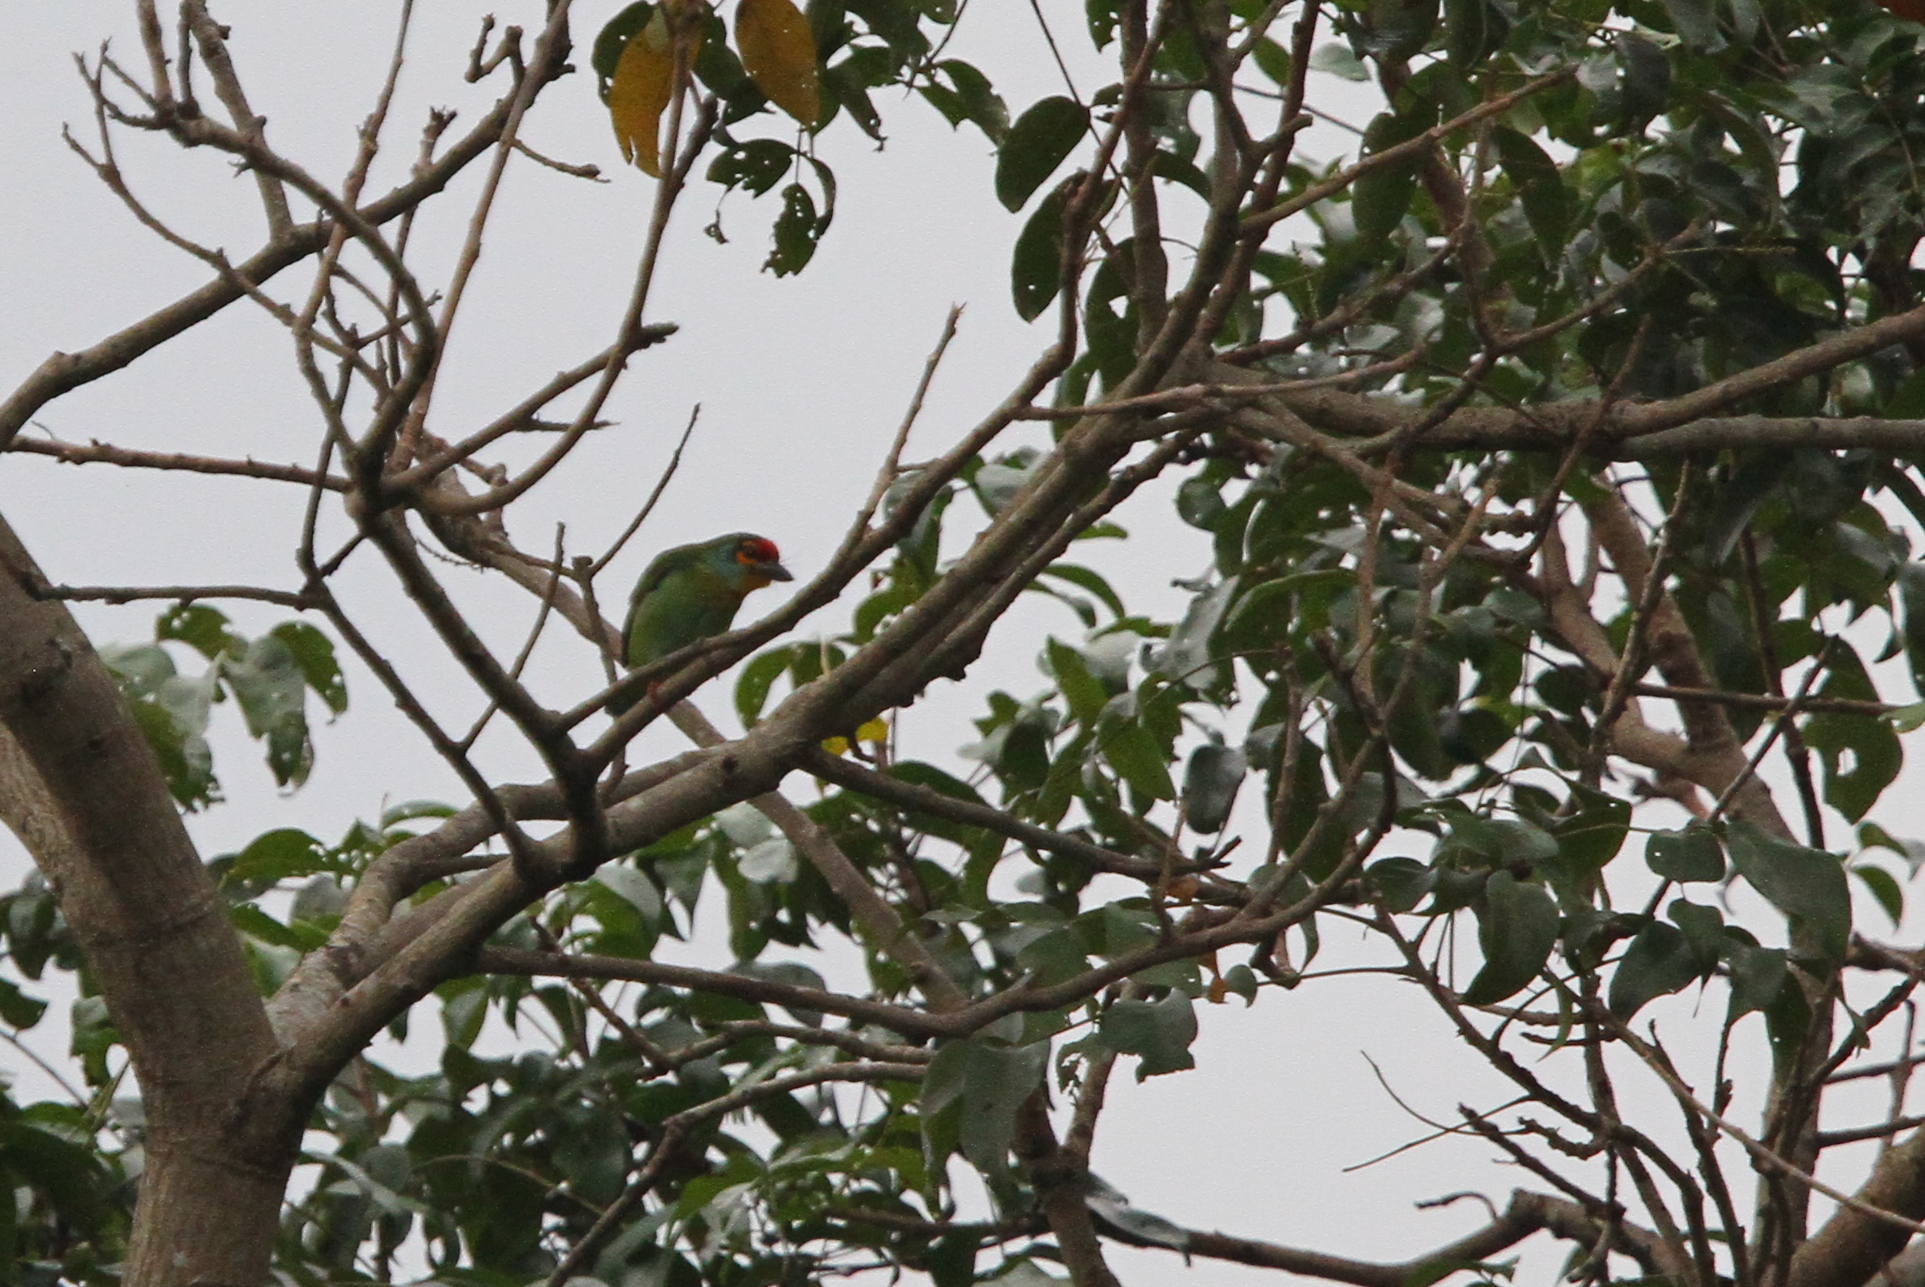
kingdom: Animalia
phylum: Chordata
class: Aves
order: Piciformes
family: Megalaimidae
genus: Psilopogon
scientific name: Psilopogon rubricapillus
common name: Crimson-fronted barbet
